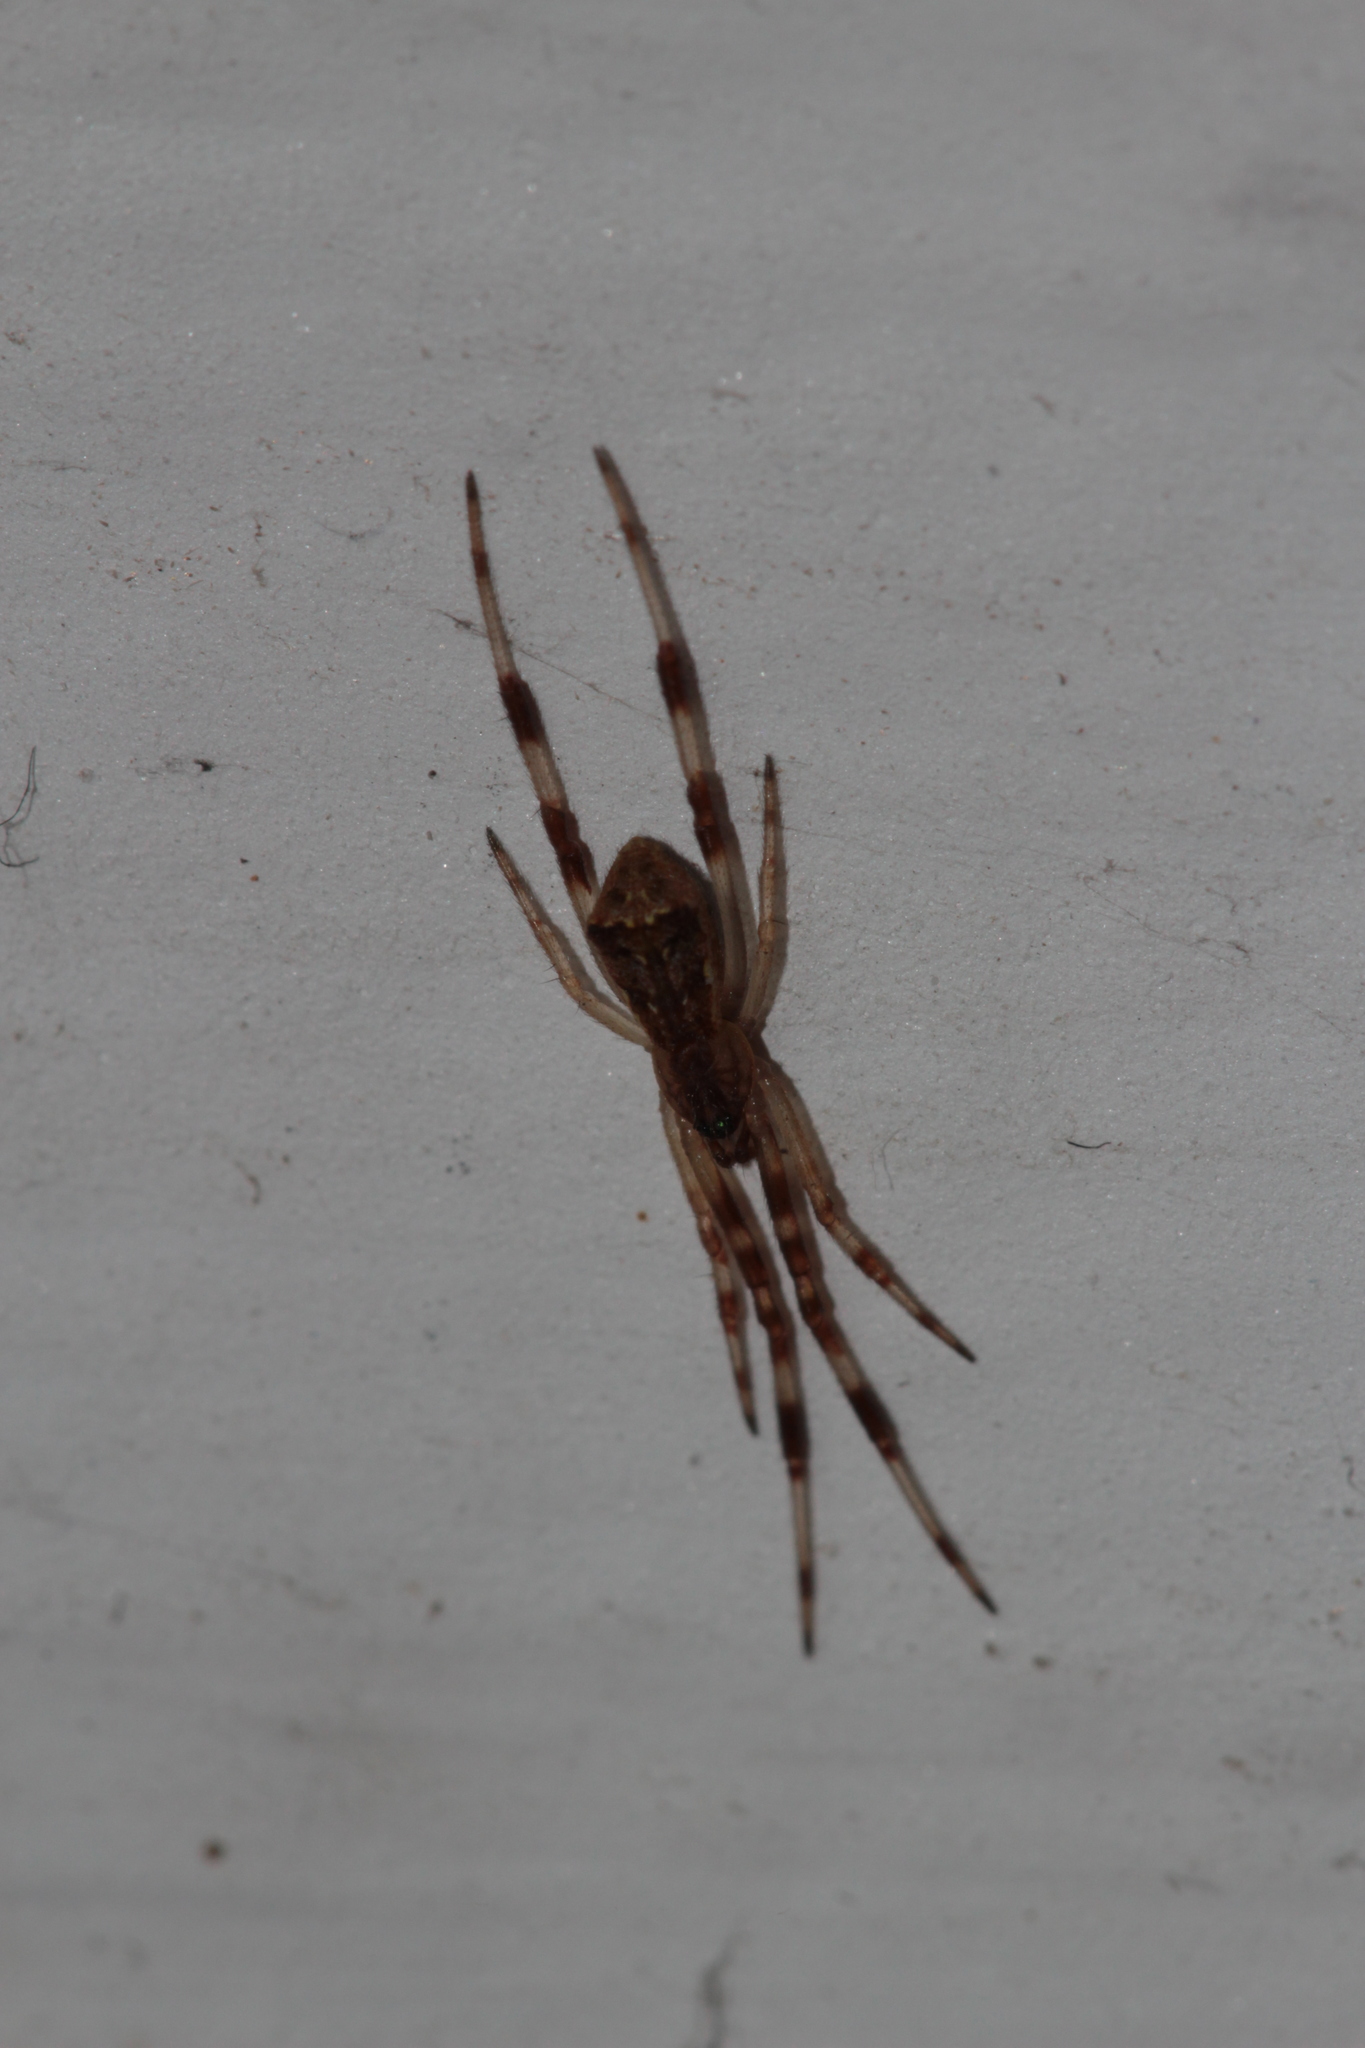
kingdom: Animalia
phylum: Arthropoda
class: Arachnida
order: Araneae
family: Theridiidae
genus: Episinus
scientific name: Episinus angulatus
